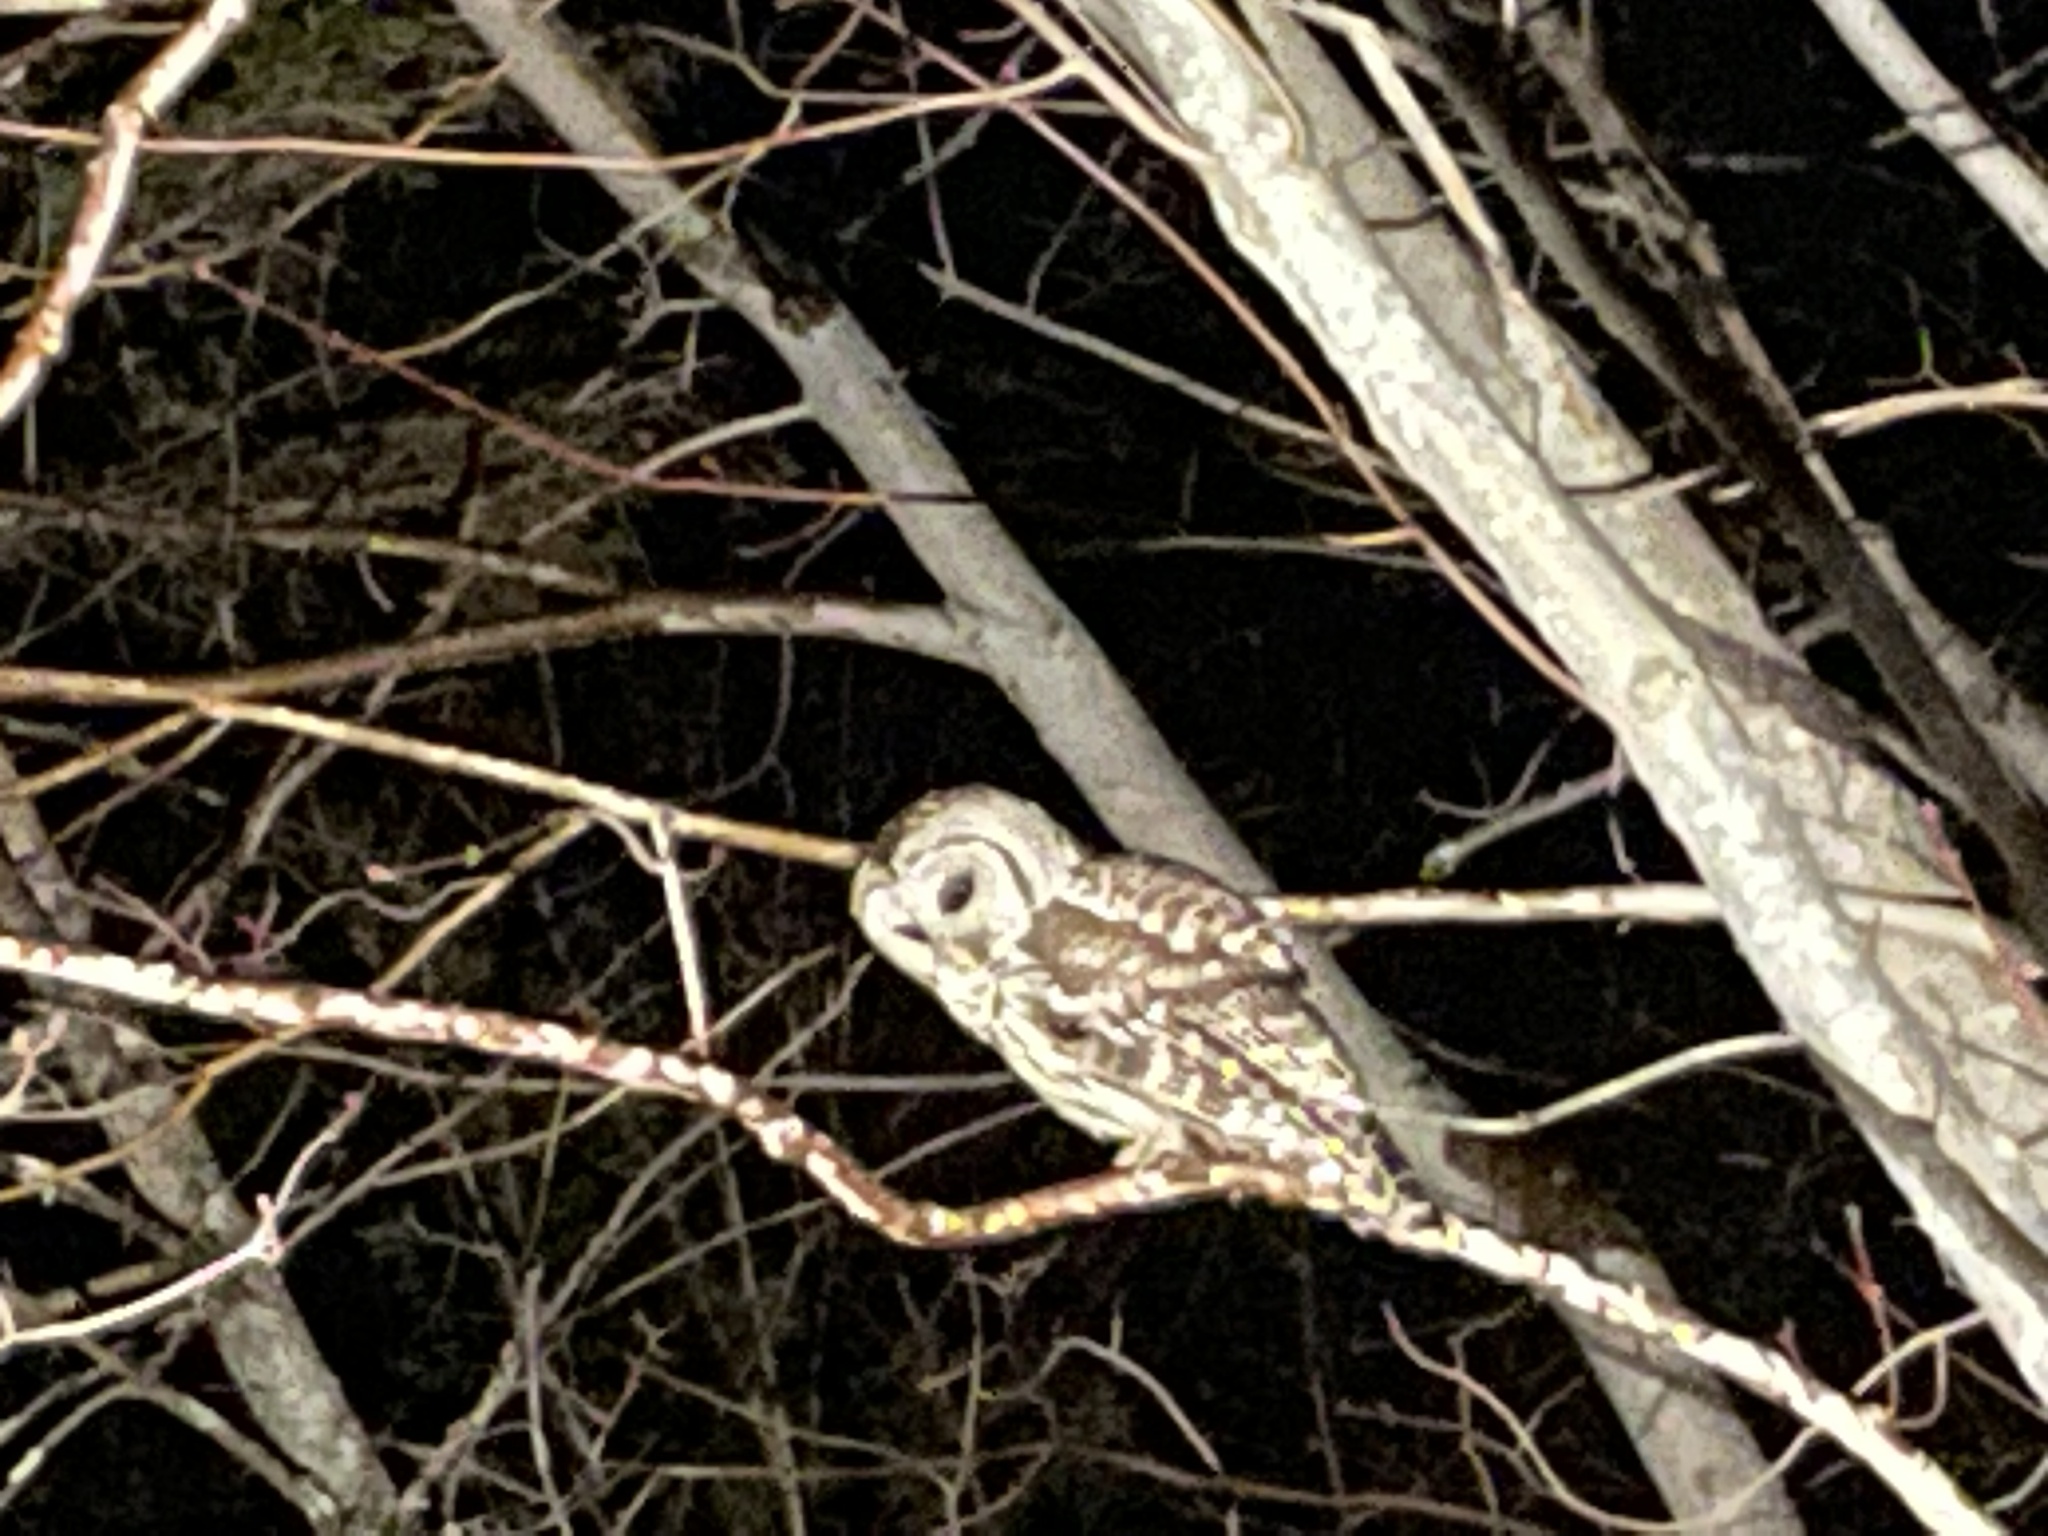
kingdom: Animalia
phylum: Chordata
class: Aves
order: Strigiformes
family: Strigidae
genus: Strix
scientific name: Strix varia
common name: Barred owl
